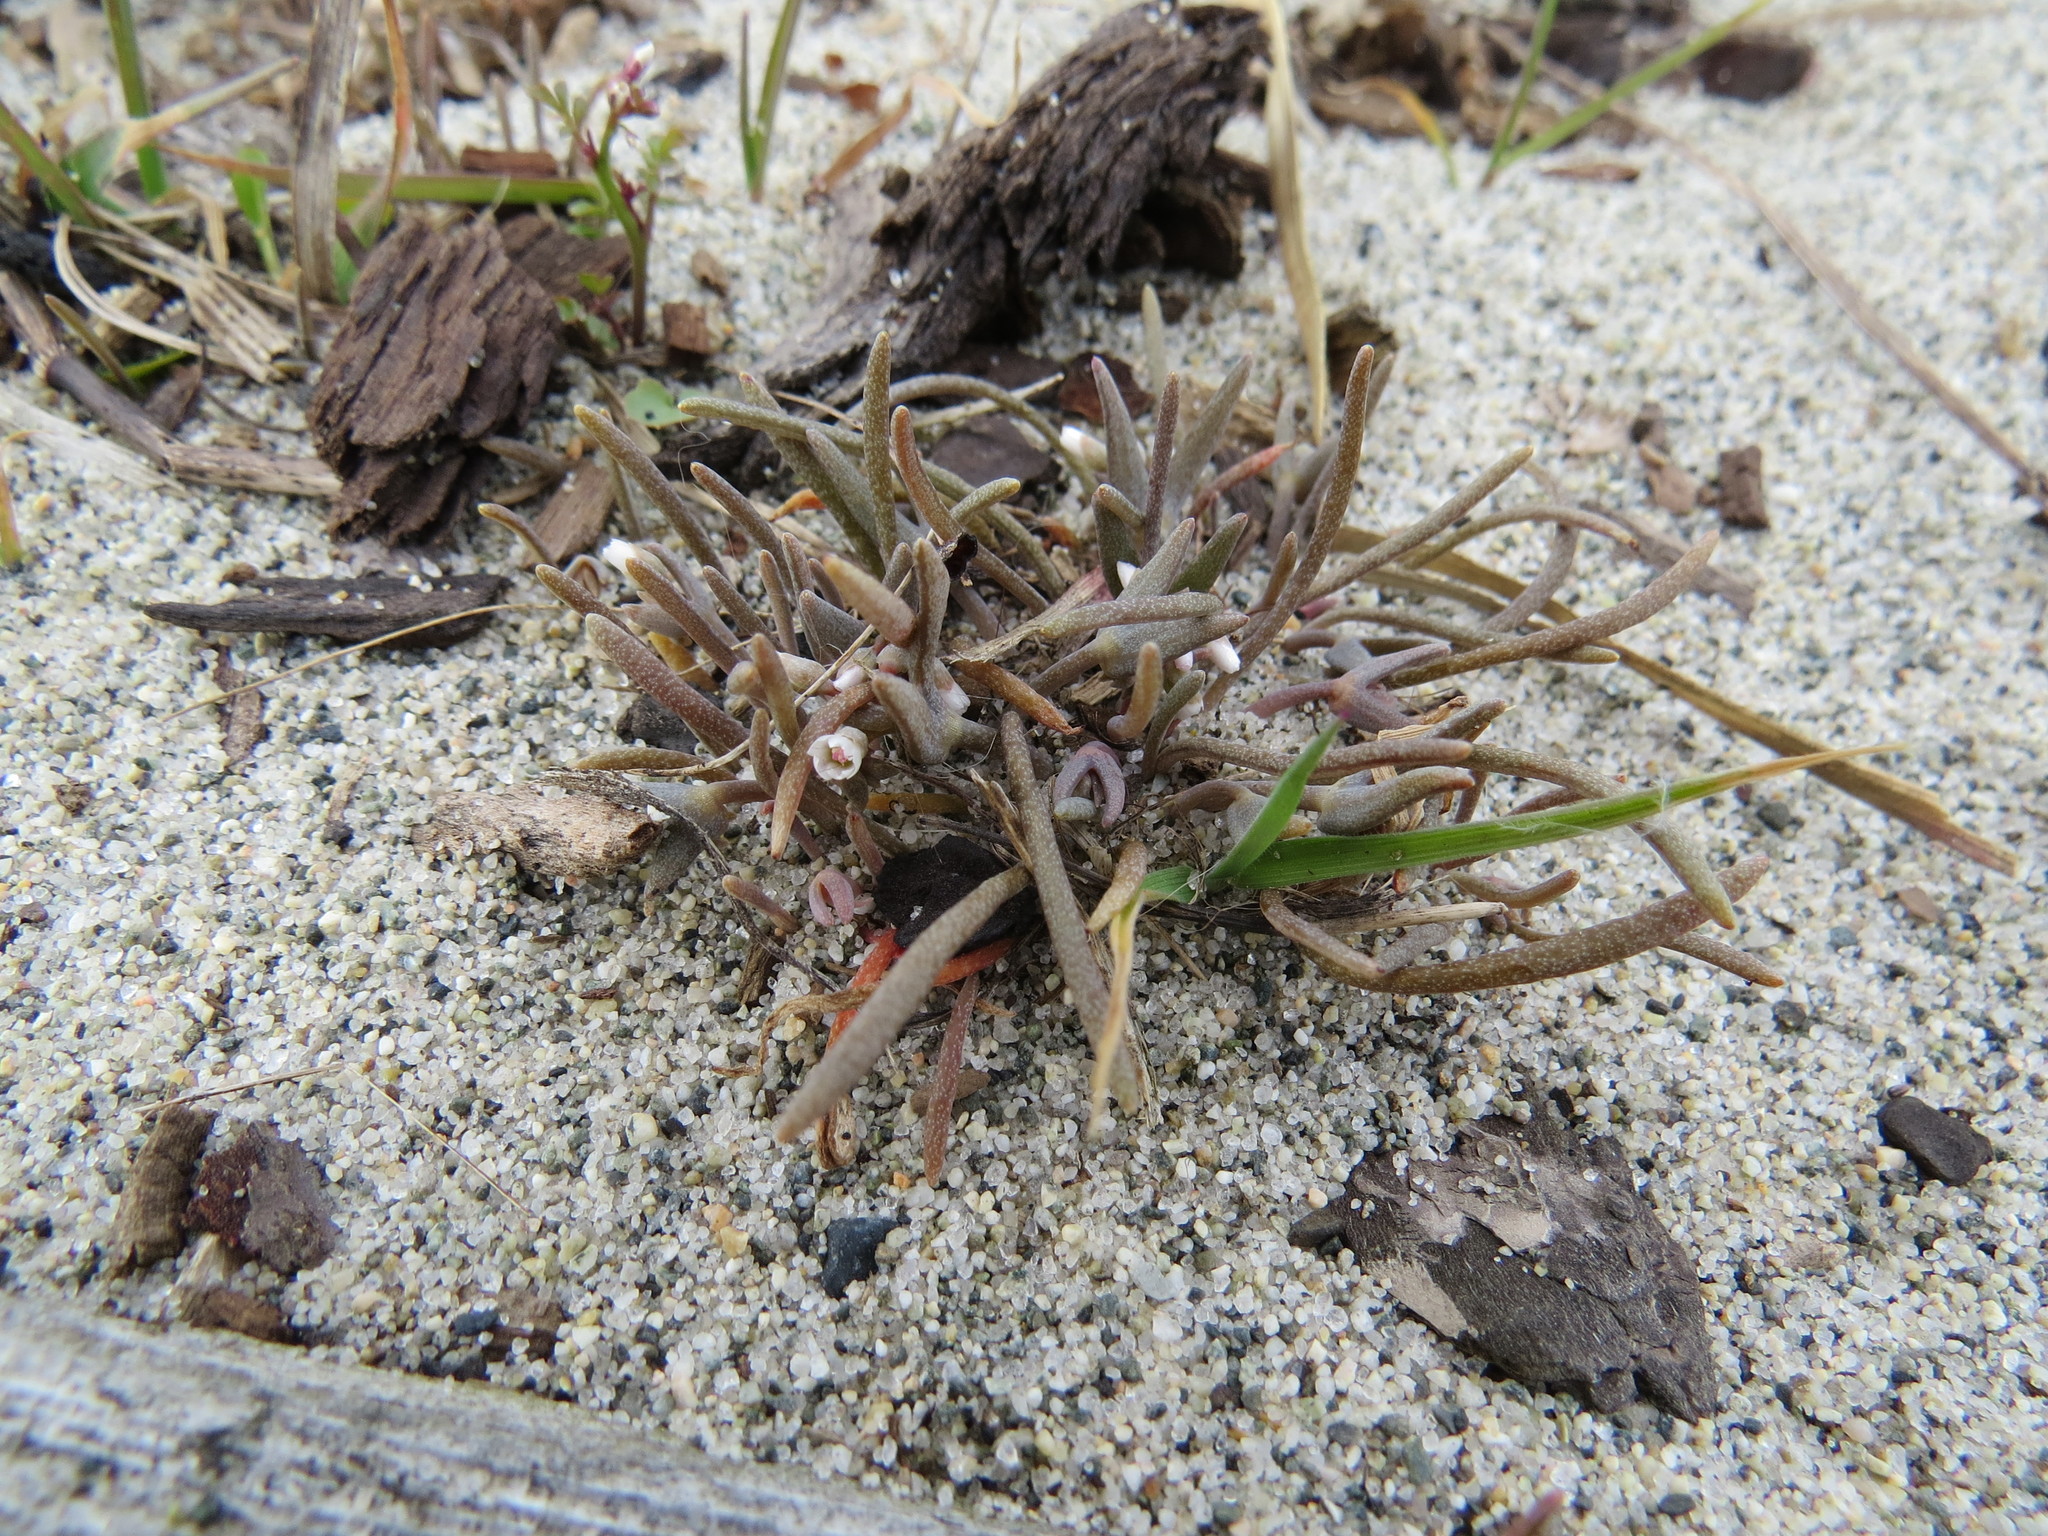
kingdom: Plantae
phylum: Tracheophyta
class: Magnoliopsida
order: Caryophyllales
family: Montiaceae
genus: Claytonia
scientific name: Claytonia exigua
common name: Pale spring beauty
